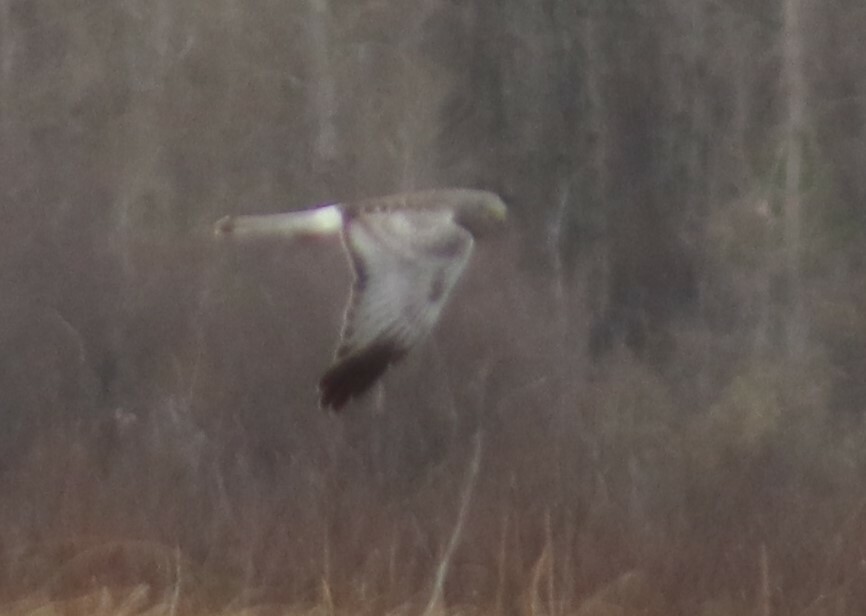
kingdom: Animalia
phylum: Chordata
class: Aves
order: Accipitriformes
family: Accipitridae
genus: Circus
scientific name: Circus cyaneus
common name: Hen harrier
